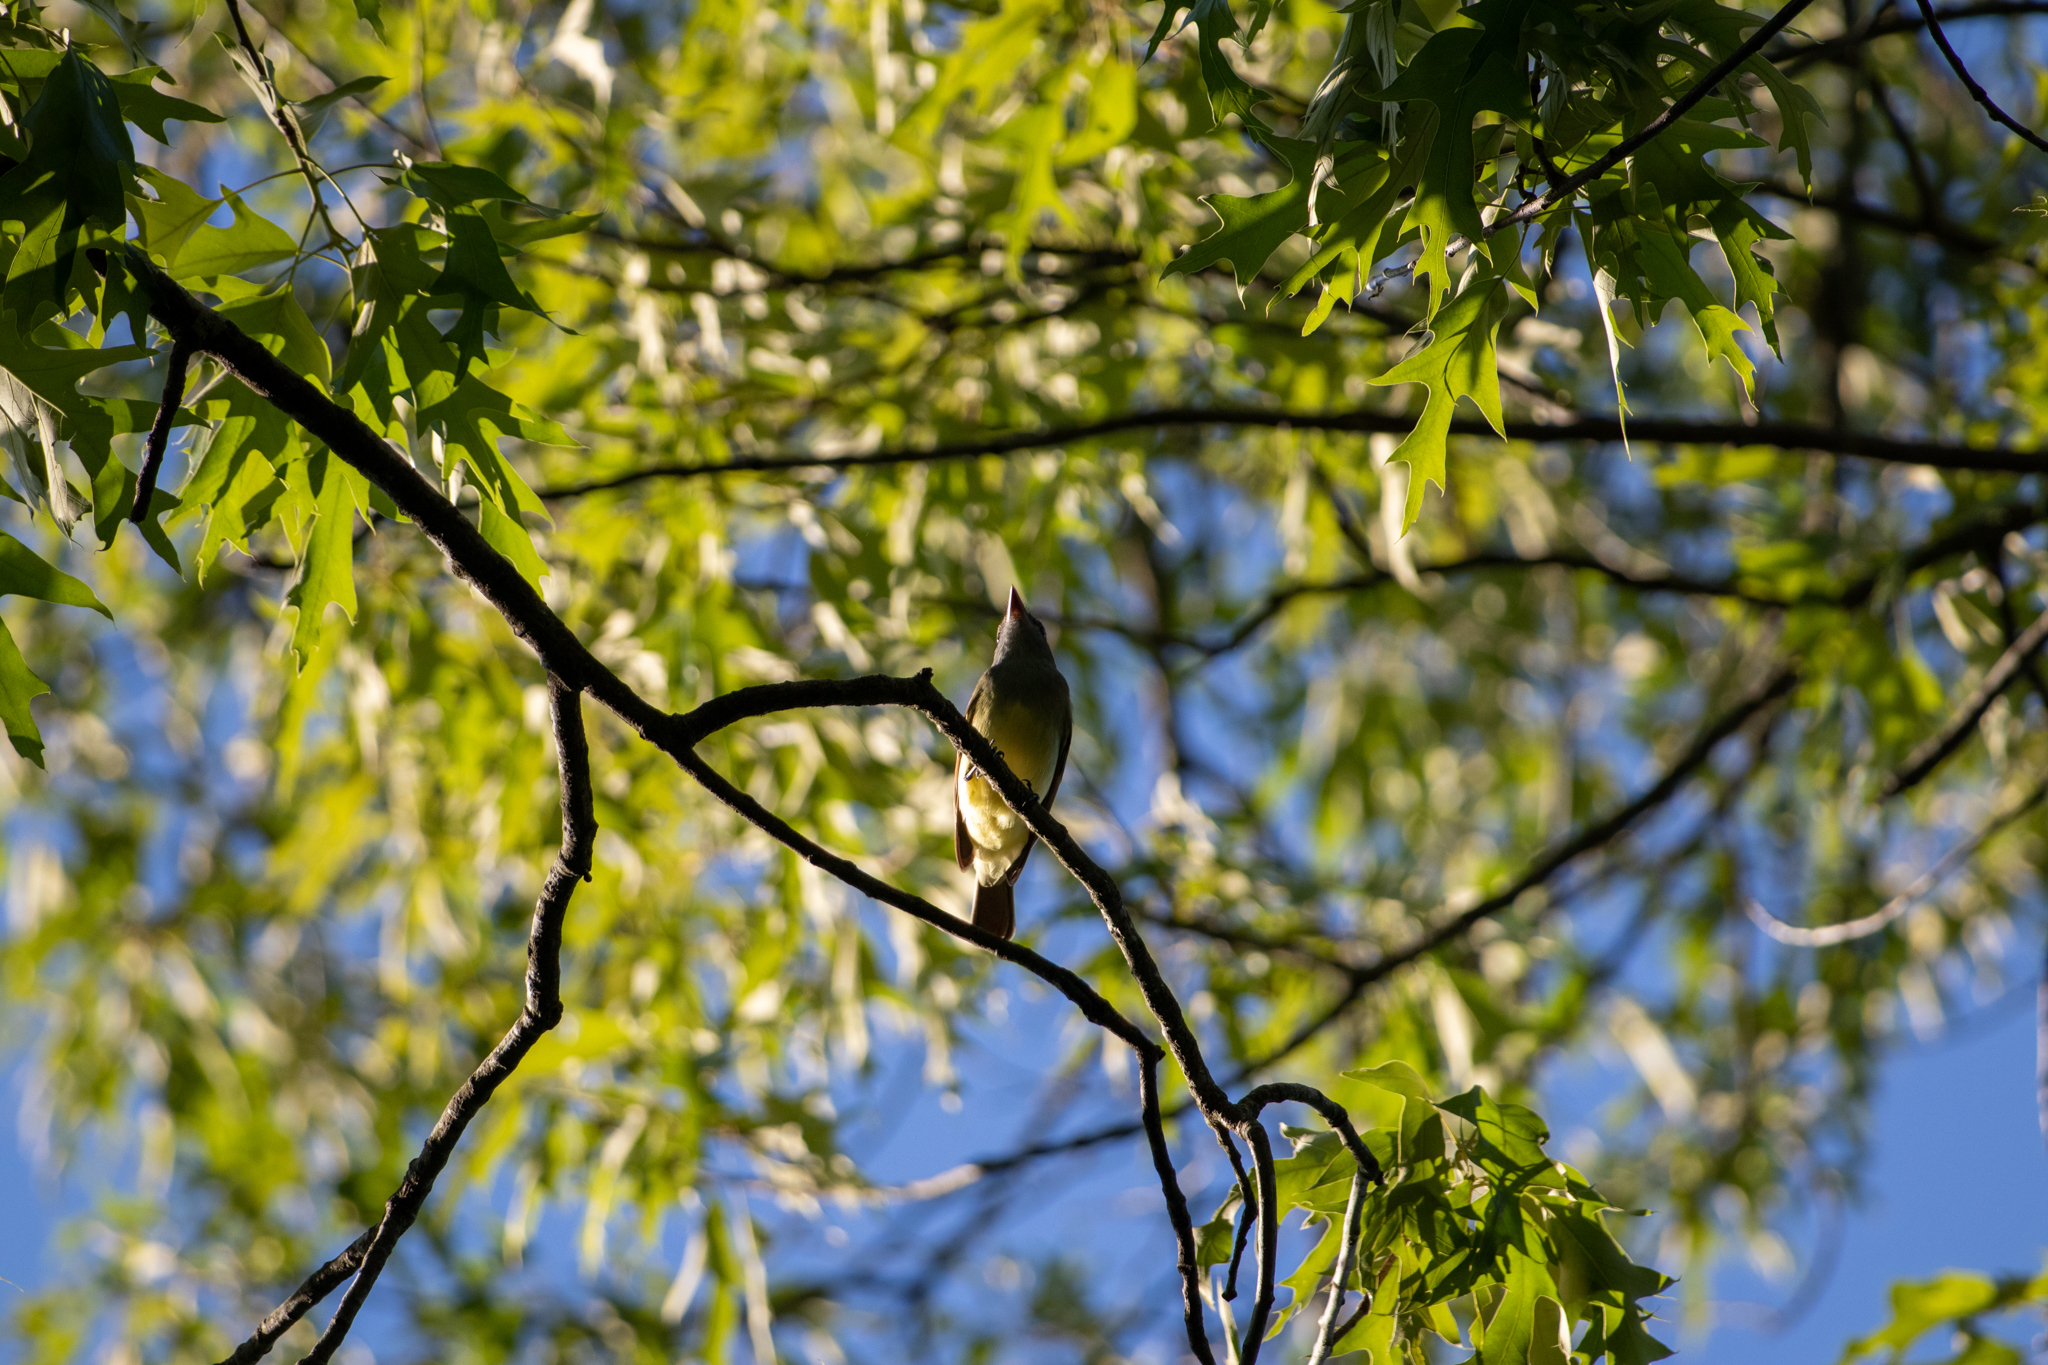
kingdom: Animalia
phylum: Chordata
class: Aves
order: Passeriformes
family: Tyrannidae
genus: Myiarchus
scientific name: Myiarchus crinitus
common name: Great crested flycatcher
